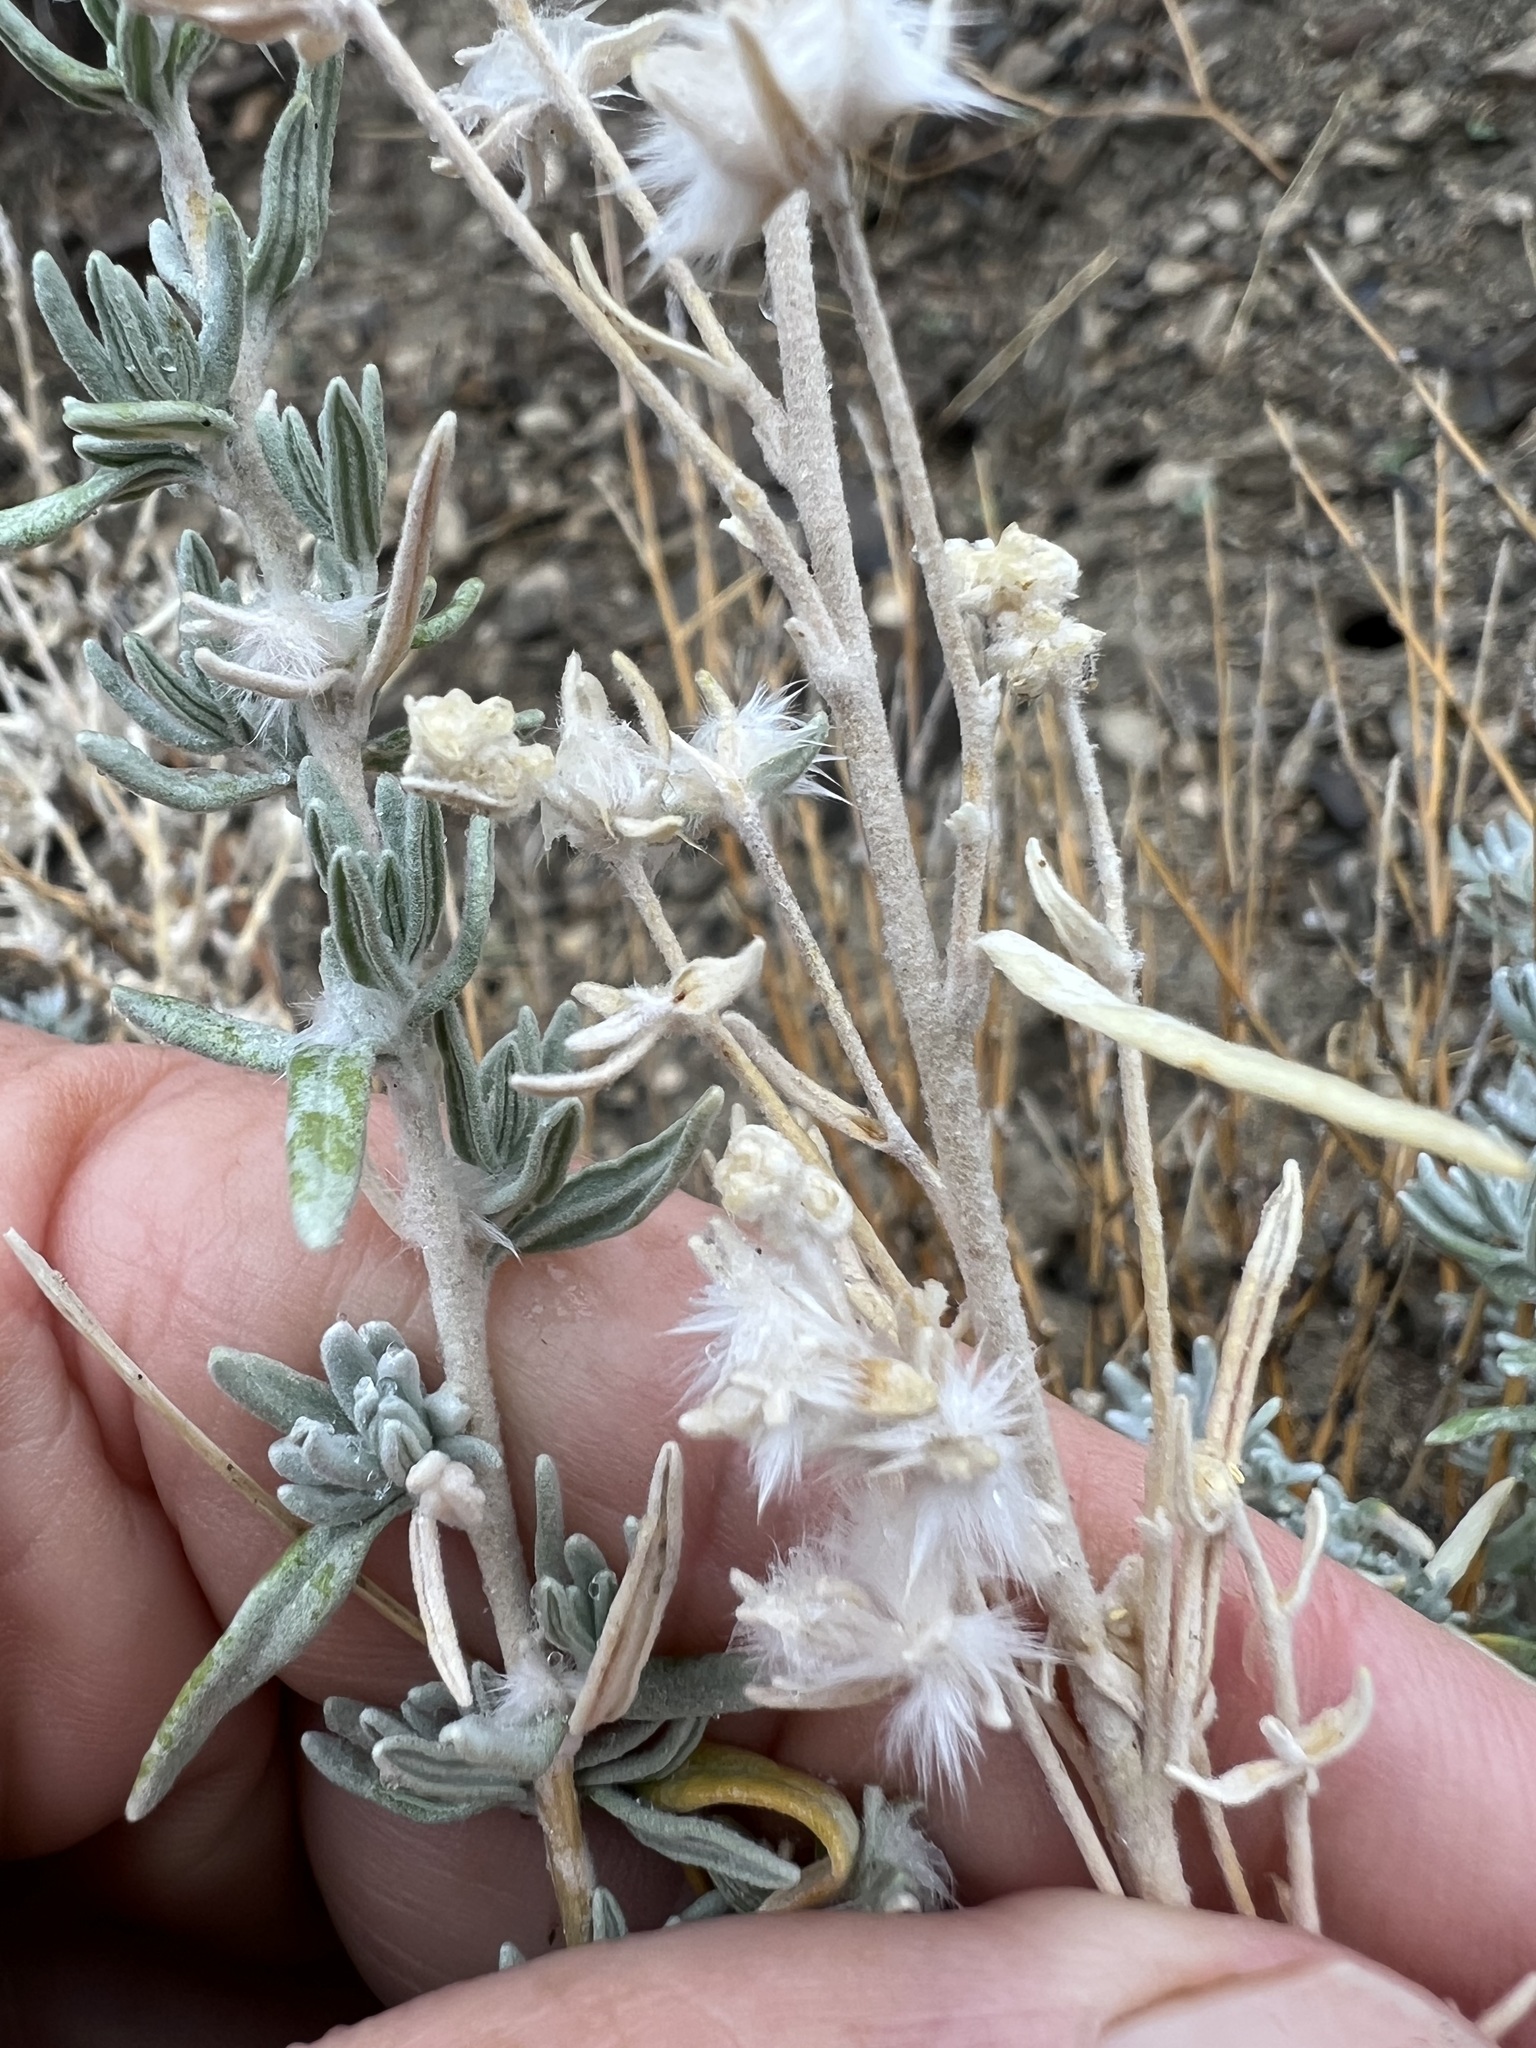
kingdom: Plantae
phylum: Tracheophyta
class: Magnoliopsida
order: Caryophyllales
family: Amaranthaceae
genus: Krascheninnikovia
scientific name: Krascheninnikovia lanata
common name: Winterfat
